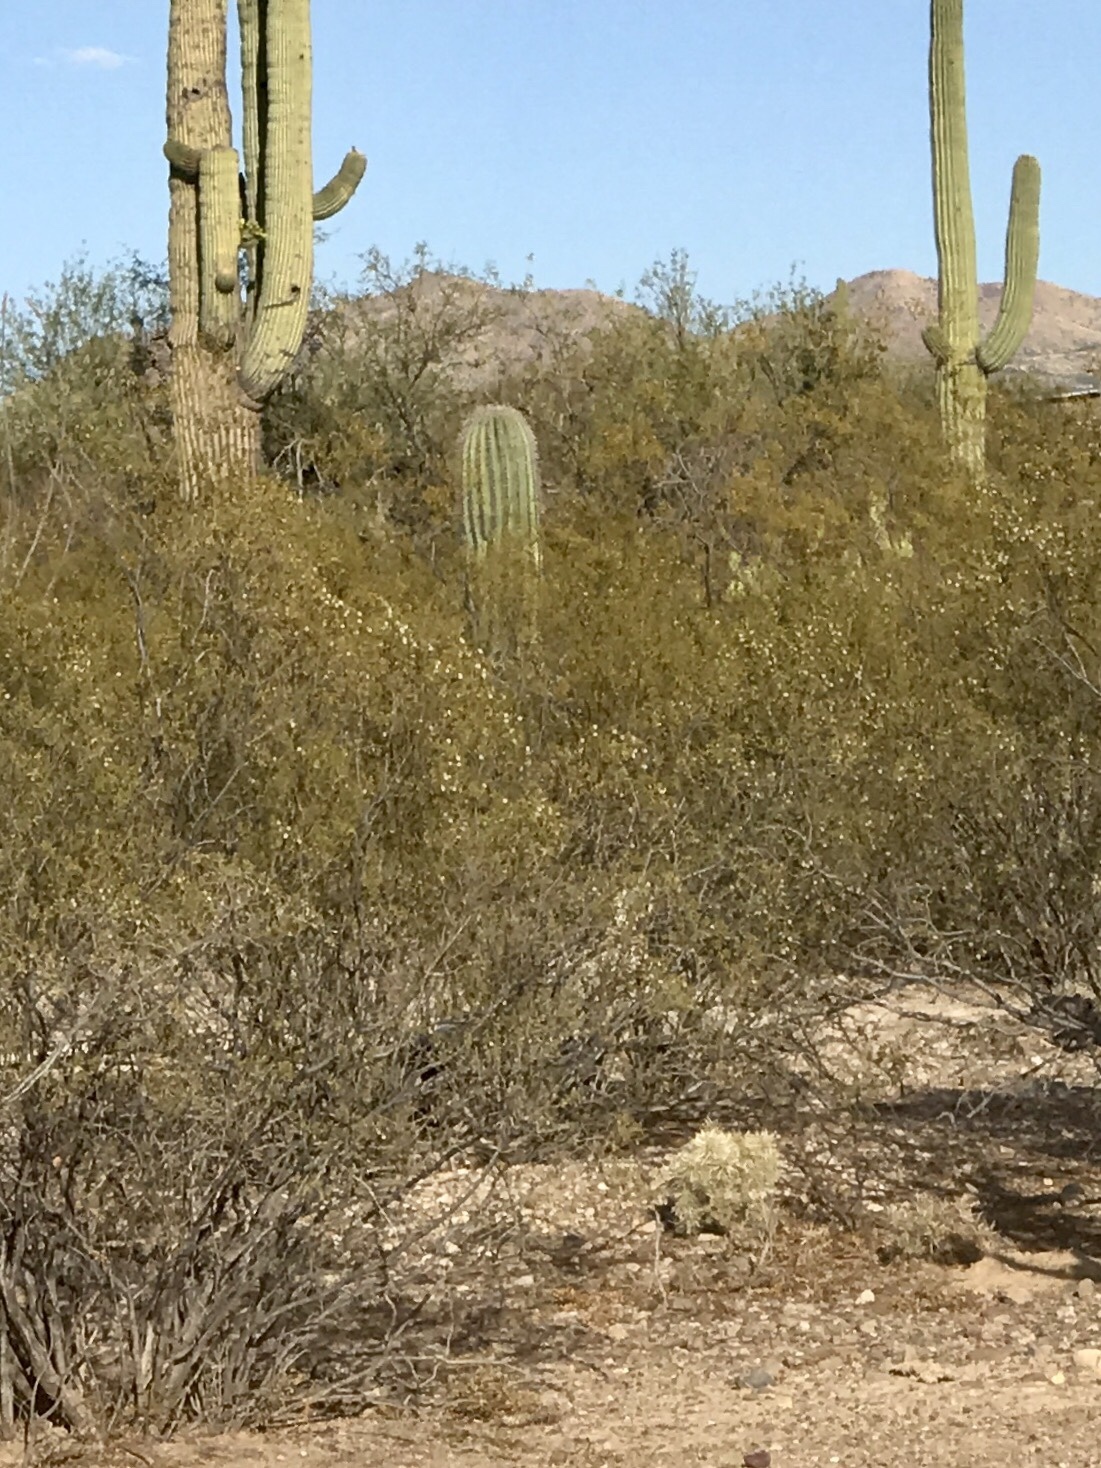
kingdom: Plantae
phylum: Tracheophyta
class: Magnoliopsida
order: Zygophyllales
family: Zygophyllaceae
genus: Larrea
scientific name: Larrea tridentata
